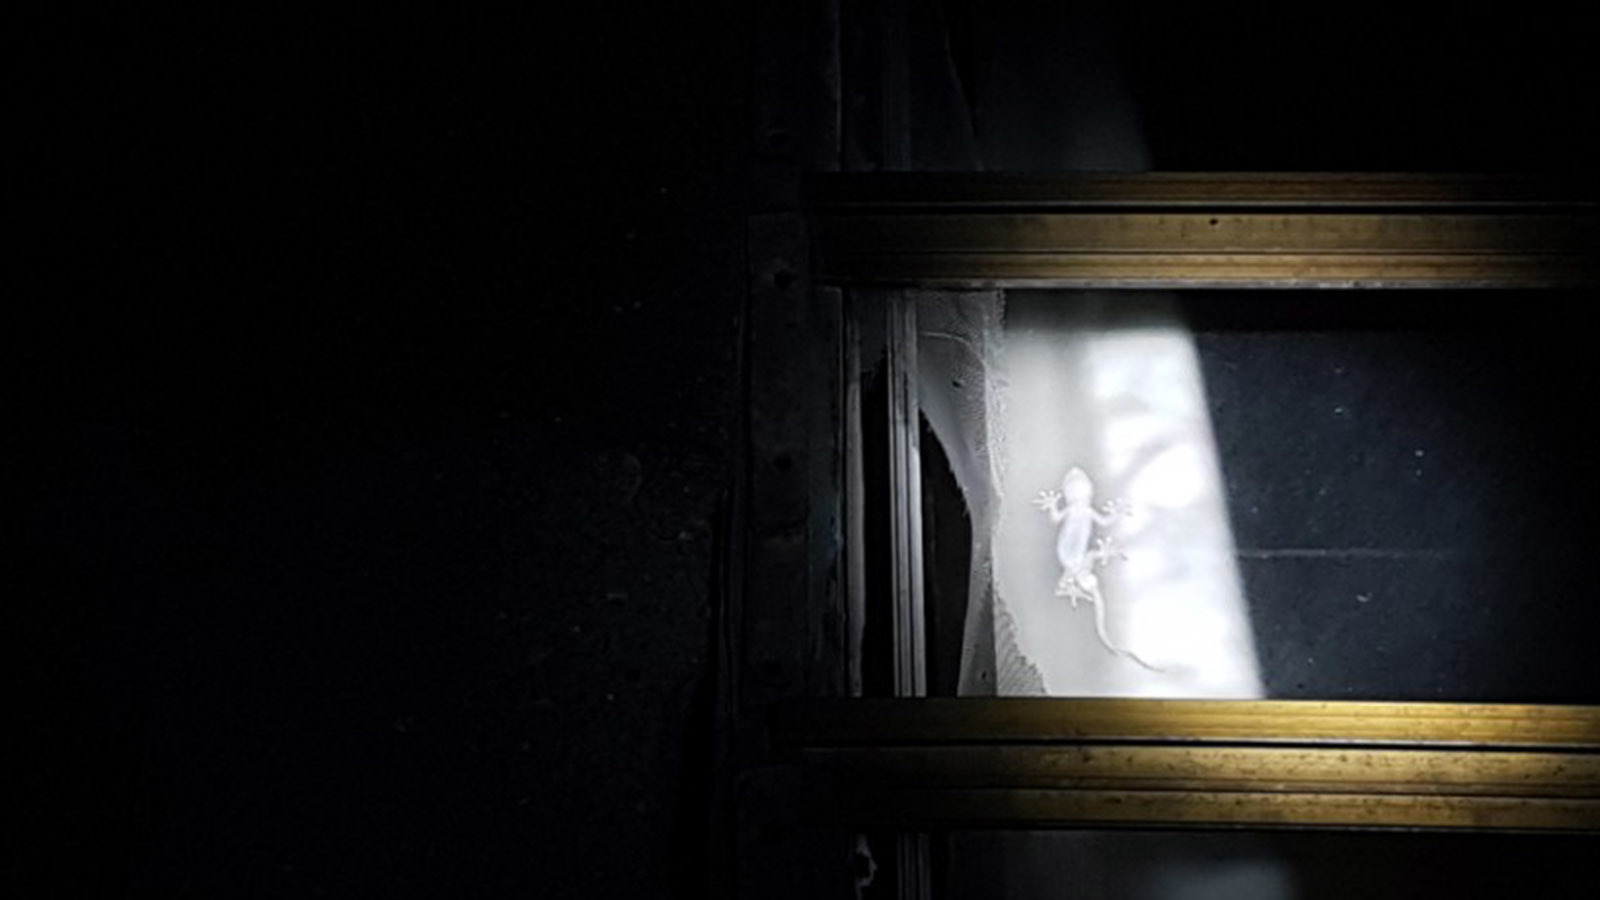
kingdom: Animalia
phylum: Chordata
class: Squamata
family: Gekkonidae
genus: Gekko
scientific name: Gekko japonicus
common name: Schlegel's japanese gecko
